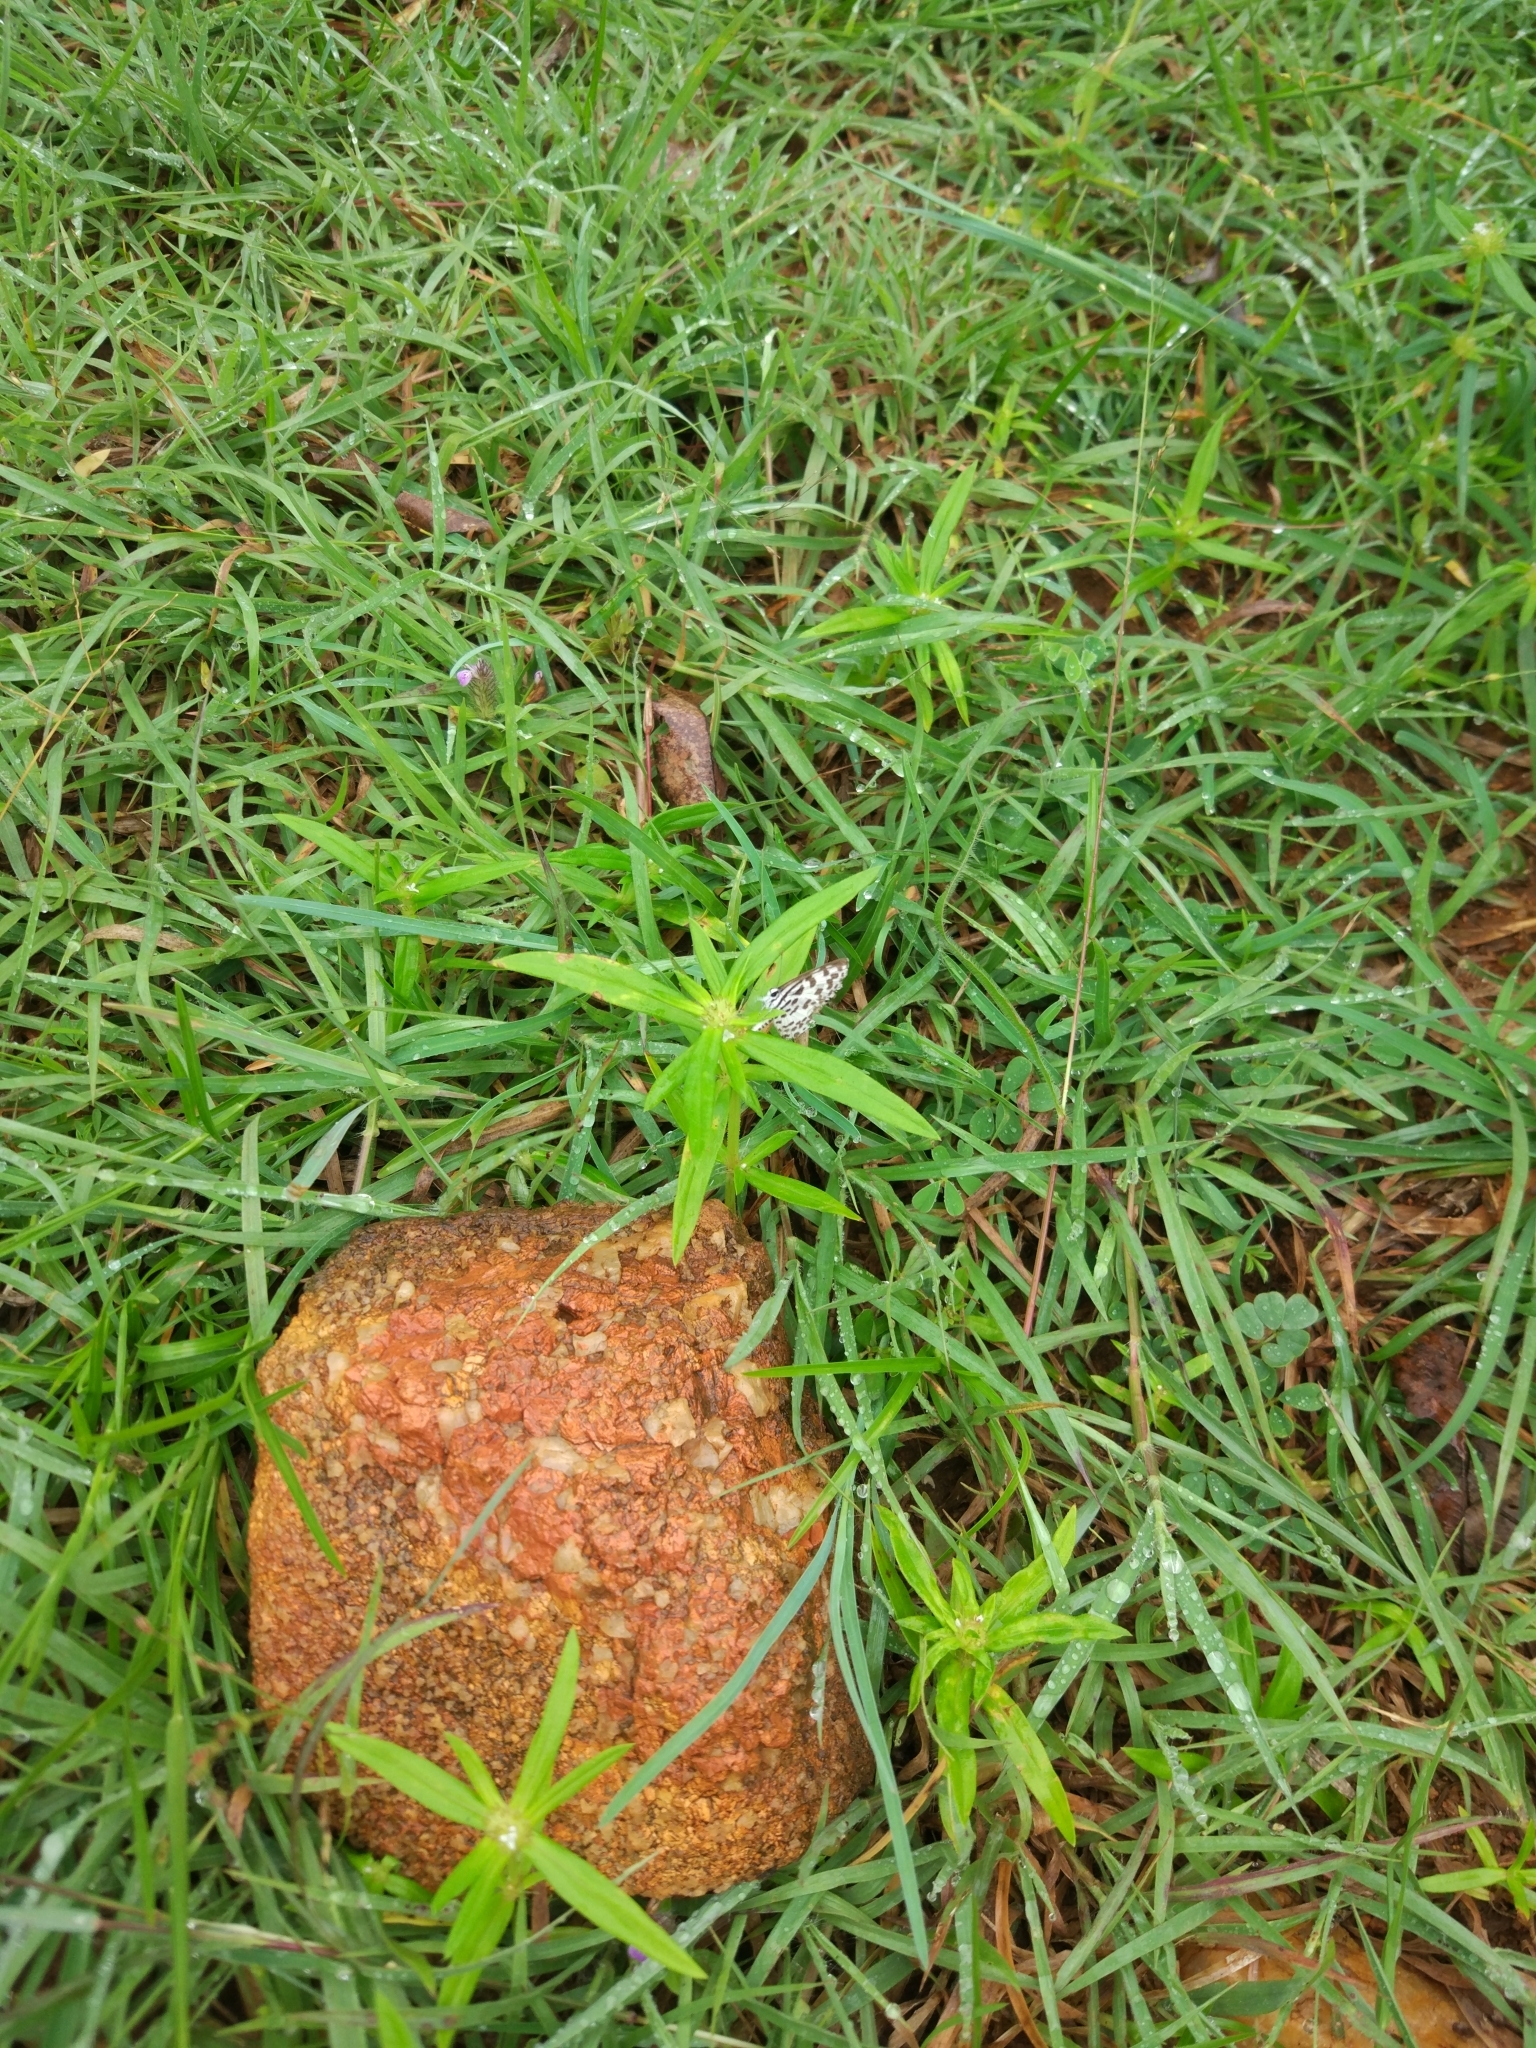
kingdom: Animalia
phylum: Arthropoda
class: Insecta
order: Lepidoptera
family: Lycaenidae
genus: Castalius
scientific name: Castalius rosimon
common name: Common pierrot
